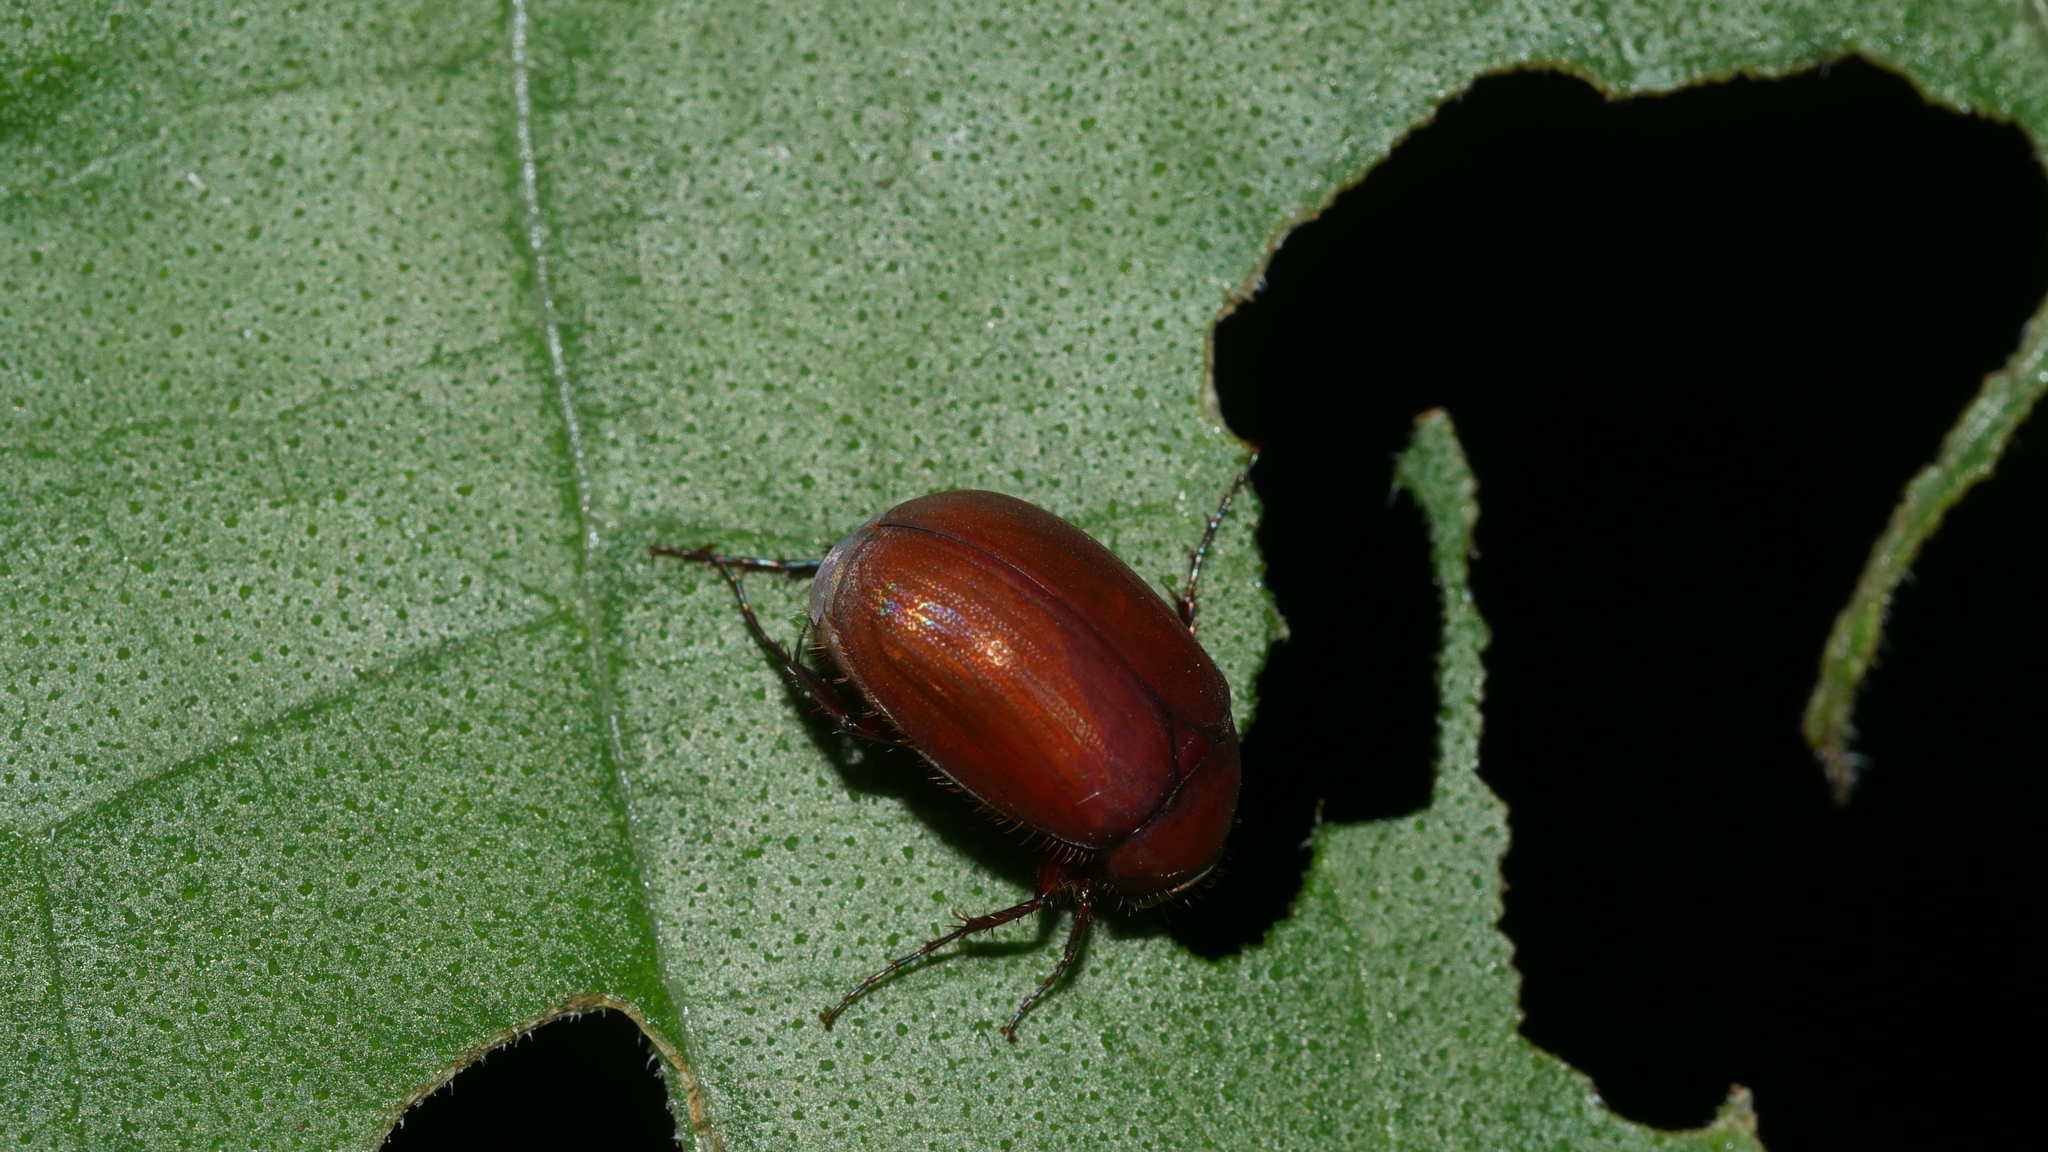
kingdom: Animalia
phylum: Arthropoda
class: Insecta
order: Coleoptera
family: Scarabaeidae
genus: Maladera
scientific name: Maladera formosae
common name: Asiatic garden beetle
